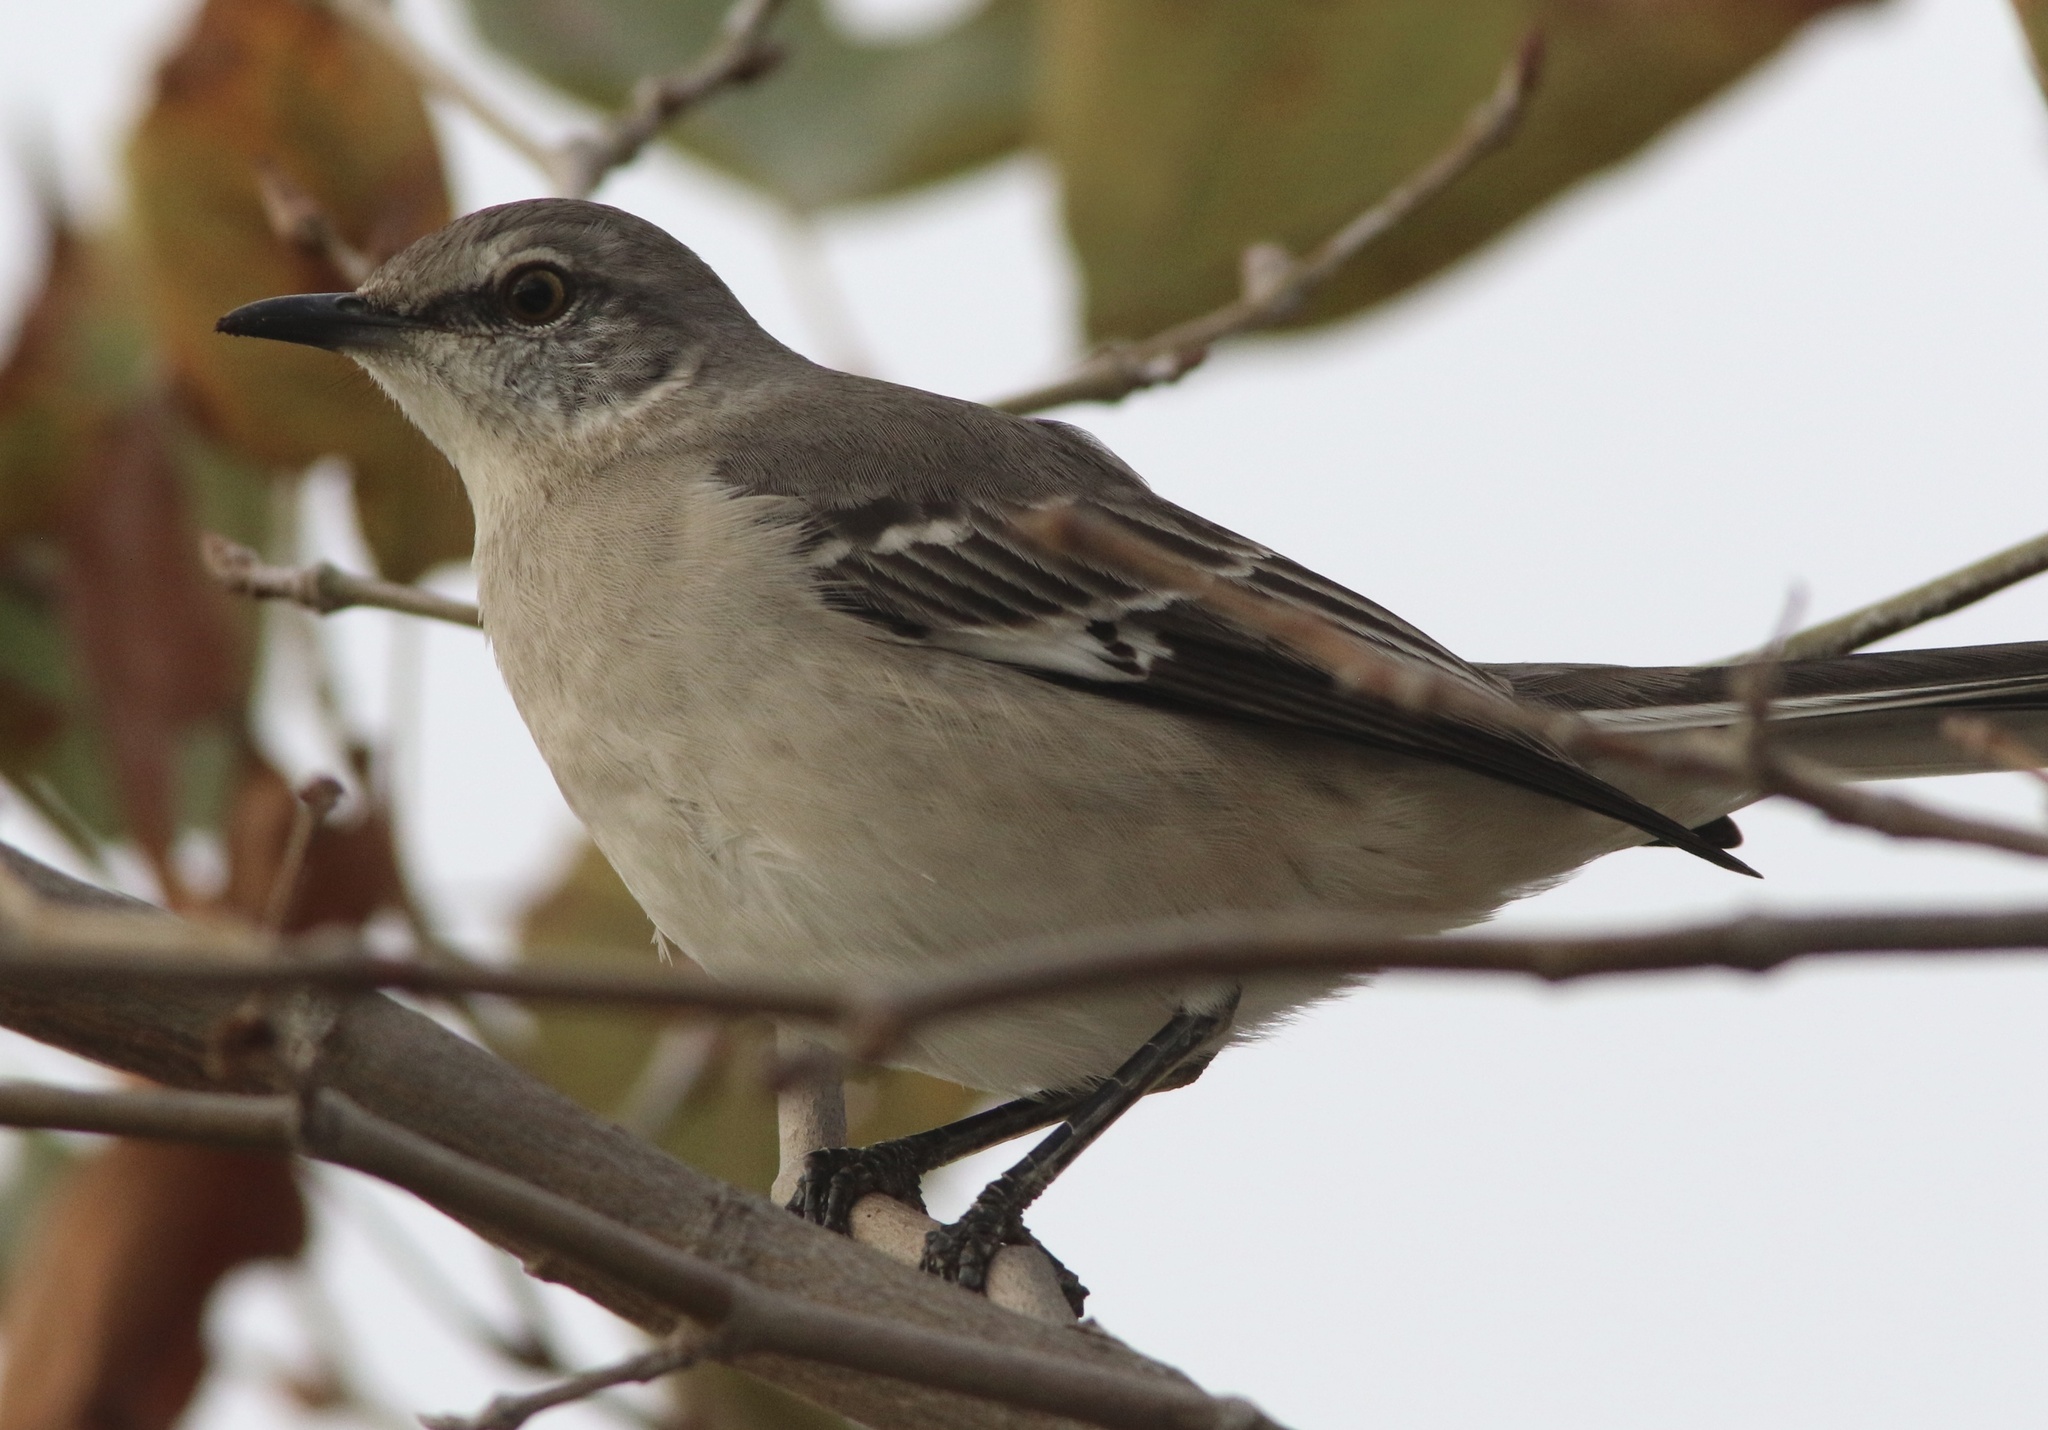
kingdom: Animalia
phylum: Chordata
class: Aves
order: Passeriformes
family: Mimidae
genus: Mimus
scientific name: Mimus polyglottos
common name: Northern mockingbird
